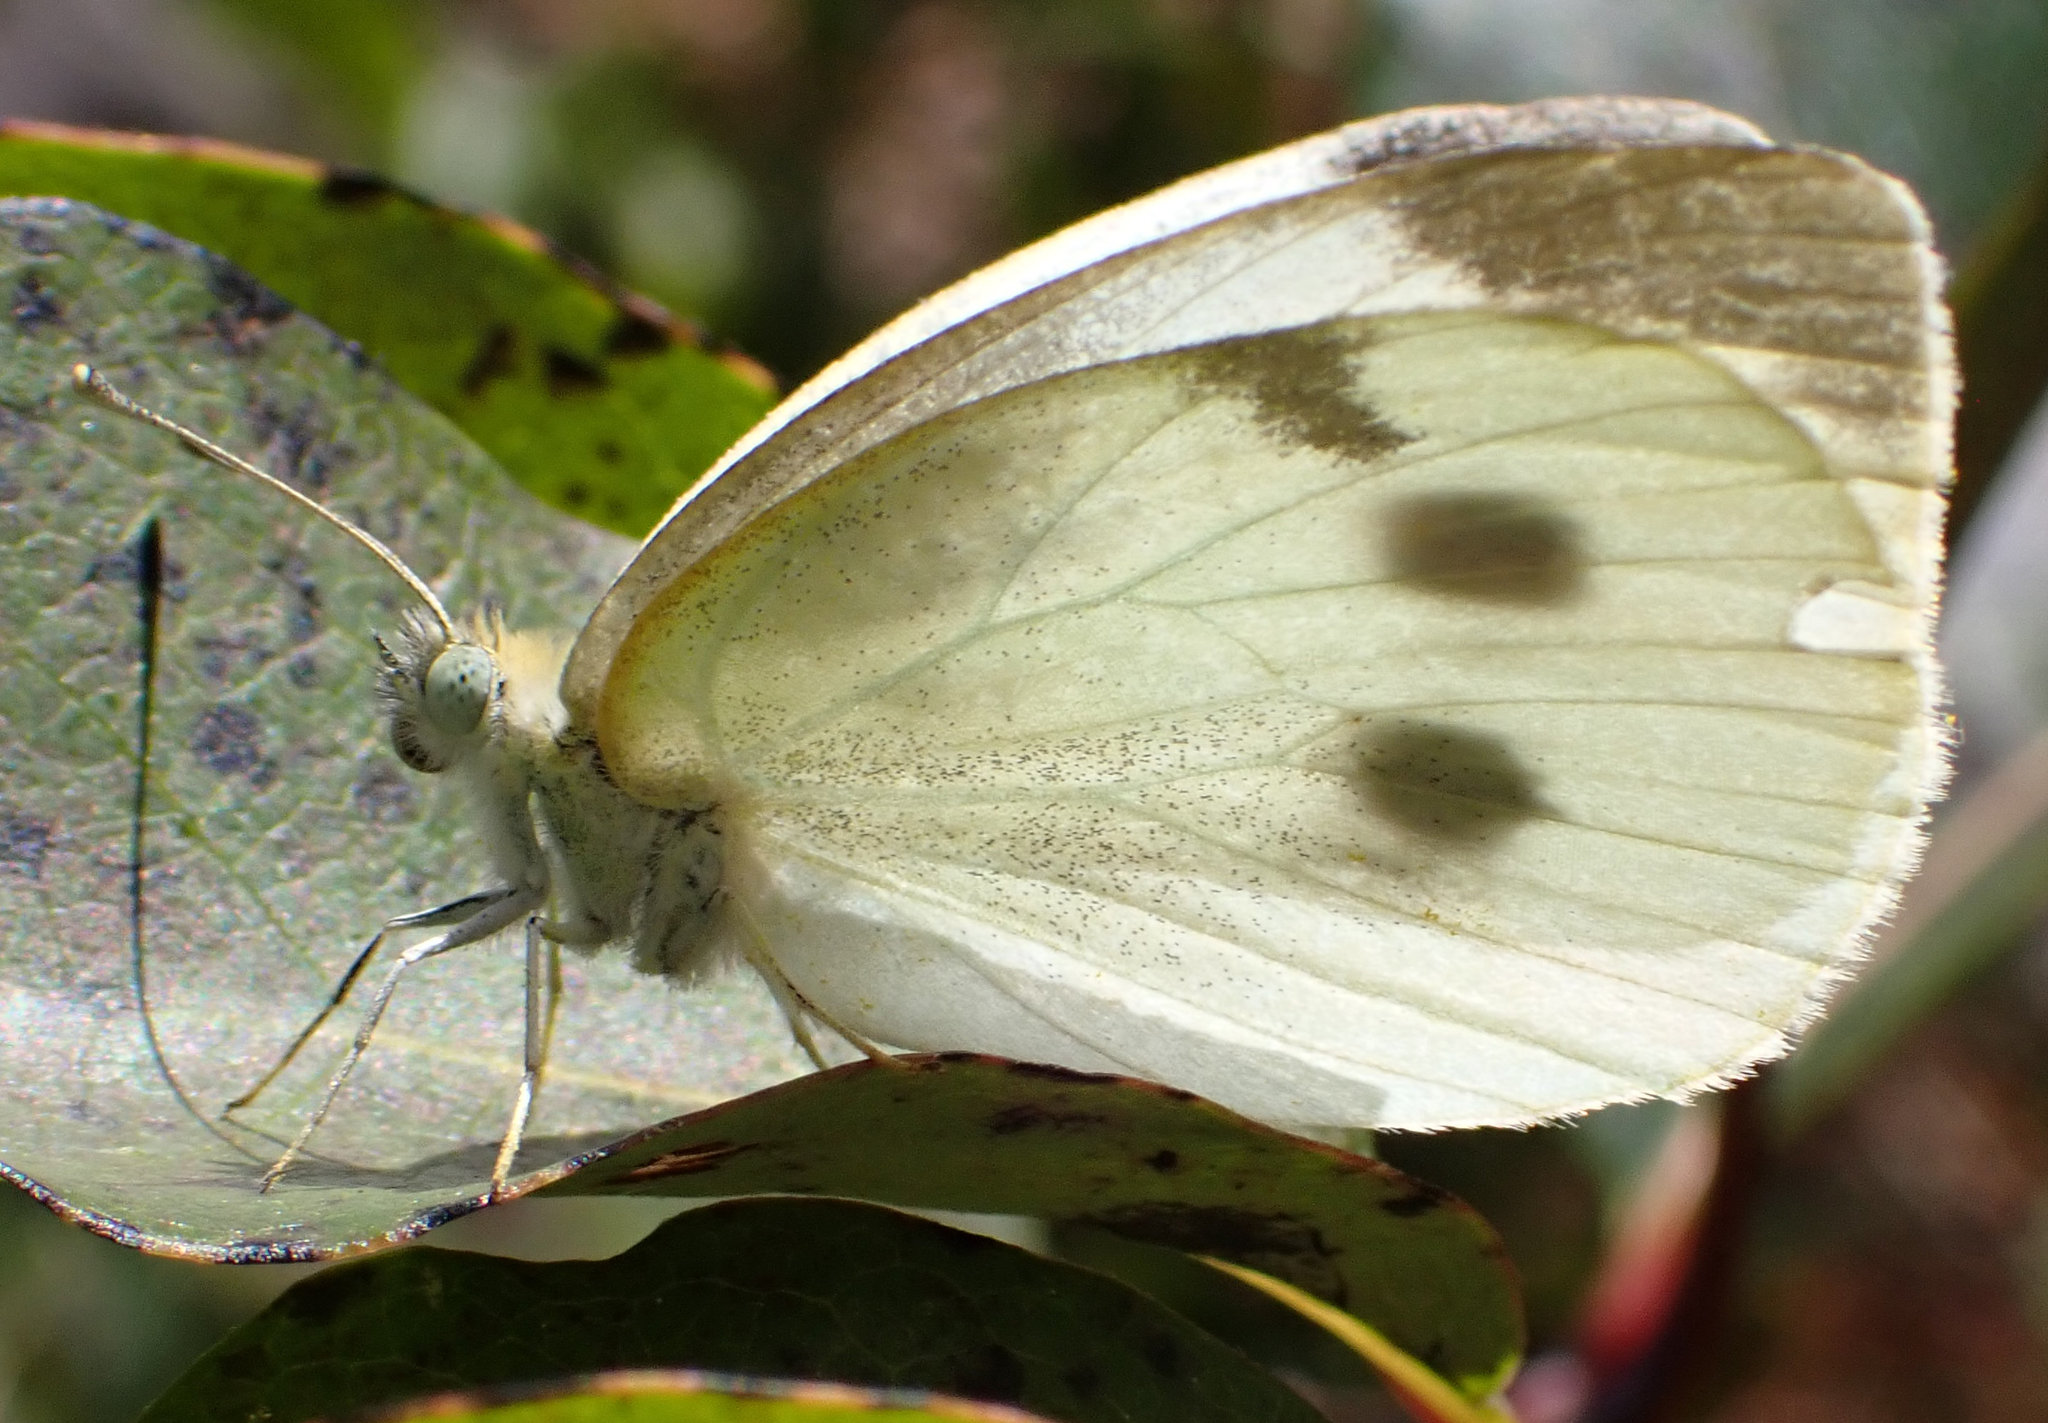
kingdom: Animalia
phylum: Arthropoda
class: Insecta
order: Lepidoptera
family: Pieridae
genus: Pieris
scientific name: Pieris rapae
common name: Small white
